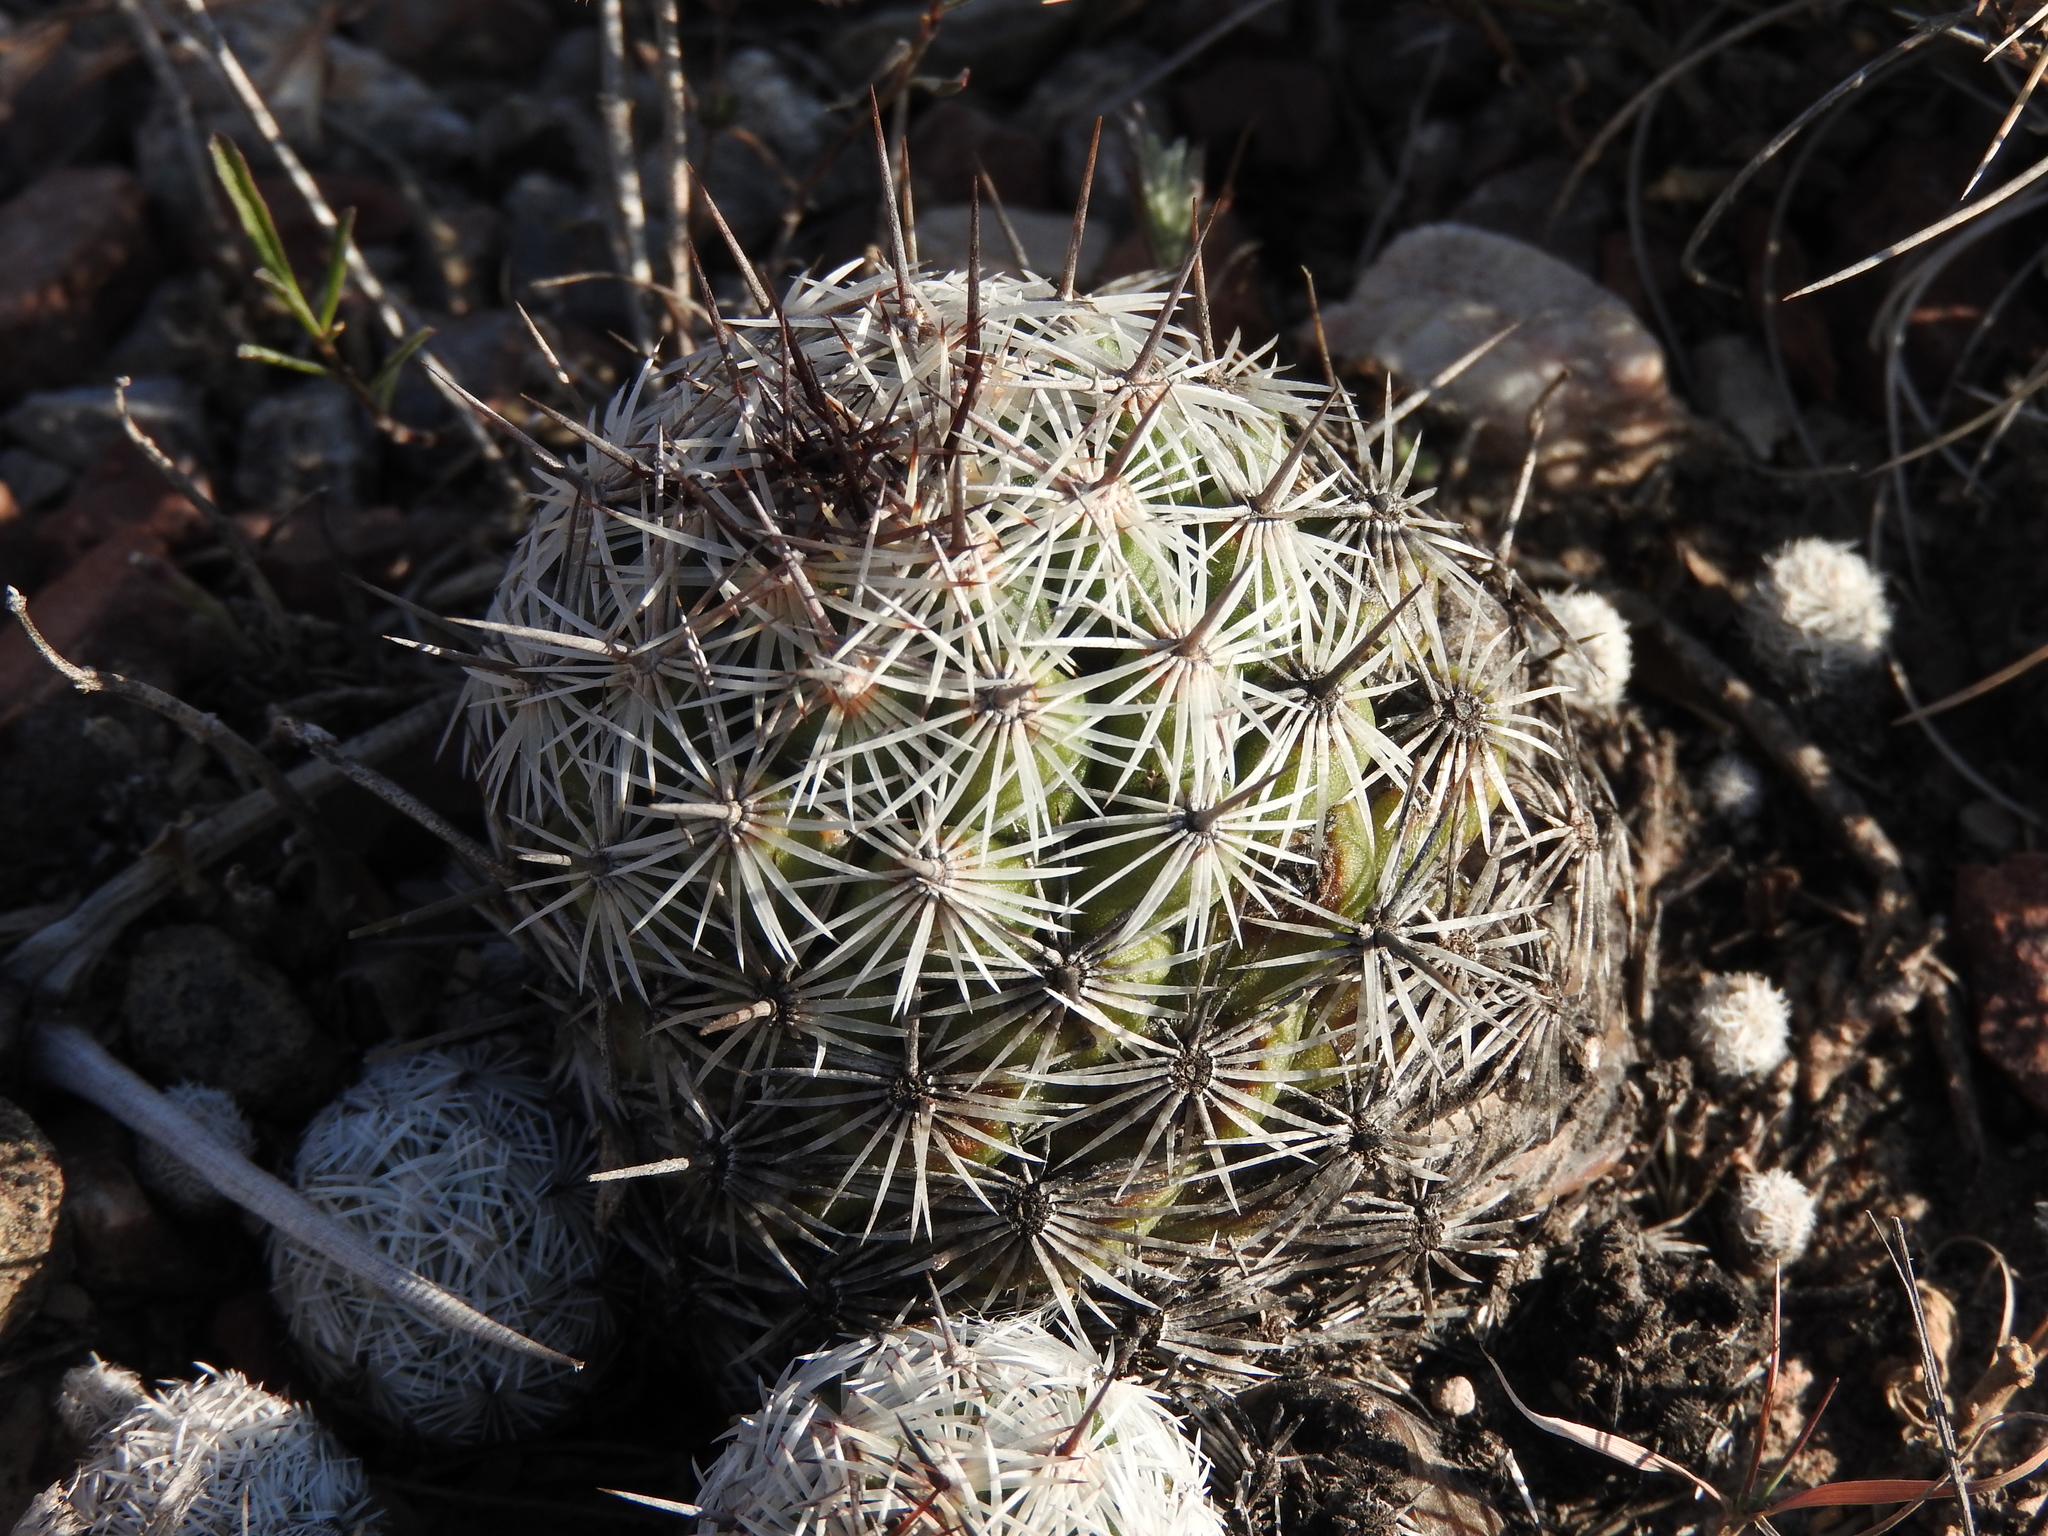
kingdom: Plantae
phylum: Tracheophyta
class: Magnoliopsida
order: Caryophyllales
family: Cactaceae
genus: Cochemiea
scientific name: Cochemiea conoidea
